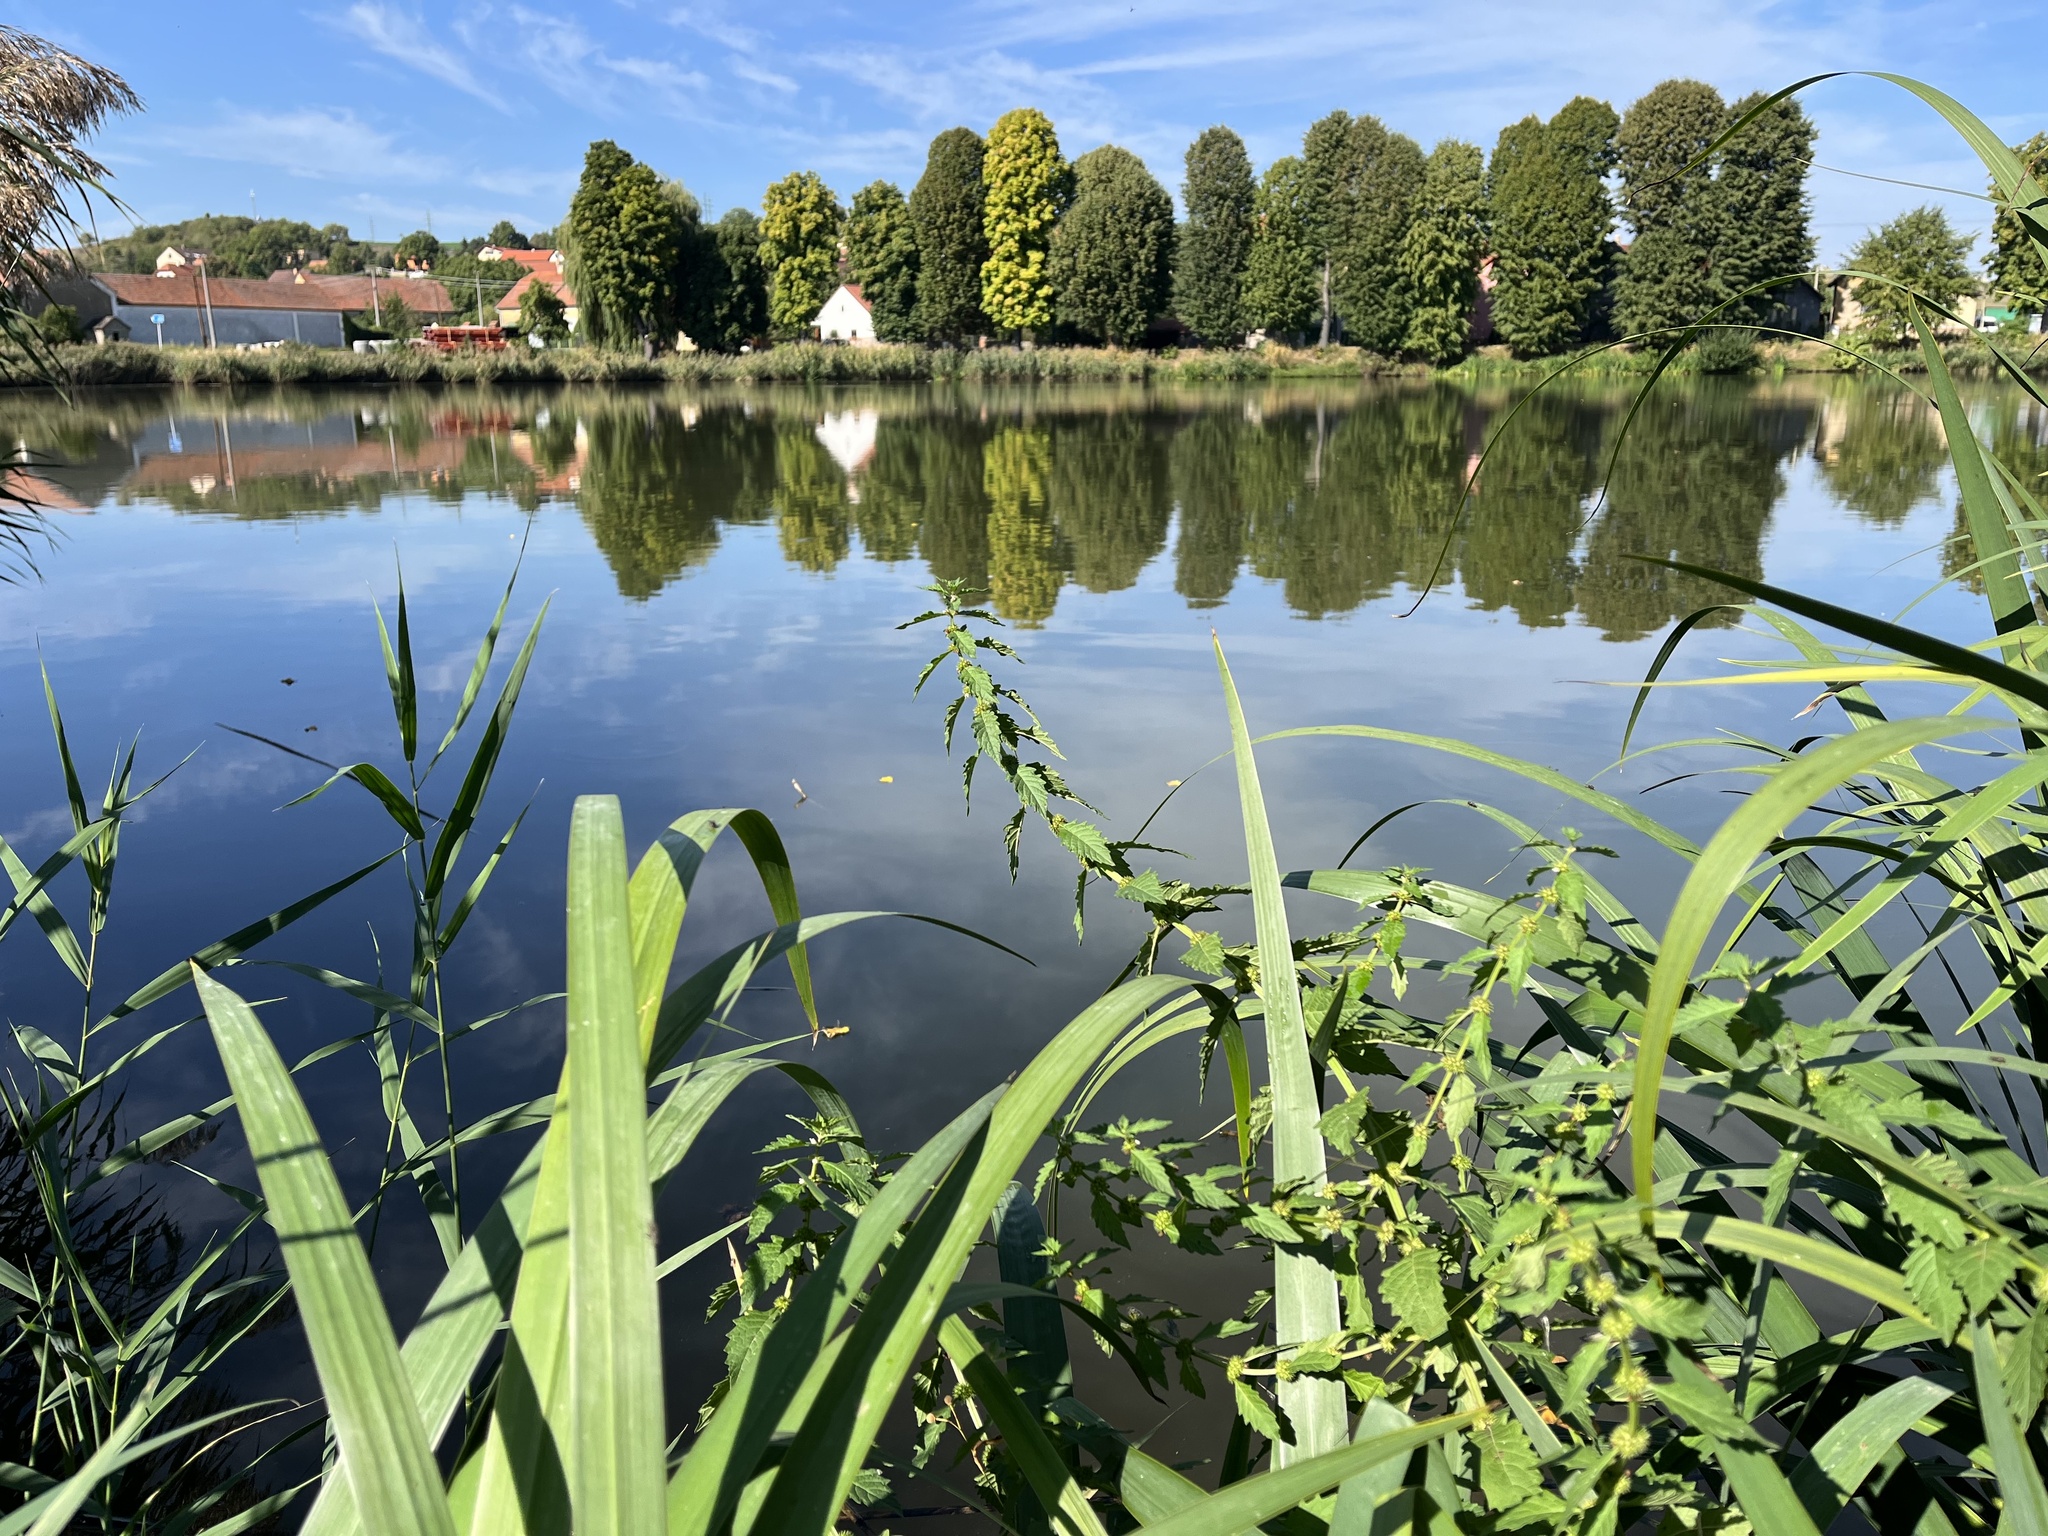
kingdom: Plantae
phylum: Tracheophyta
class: Magnoliopsida
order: Lamiales
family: Lamiaceae
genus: Lycopus
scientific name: Lycopus europaeus
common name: European bugleweed
